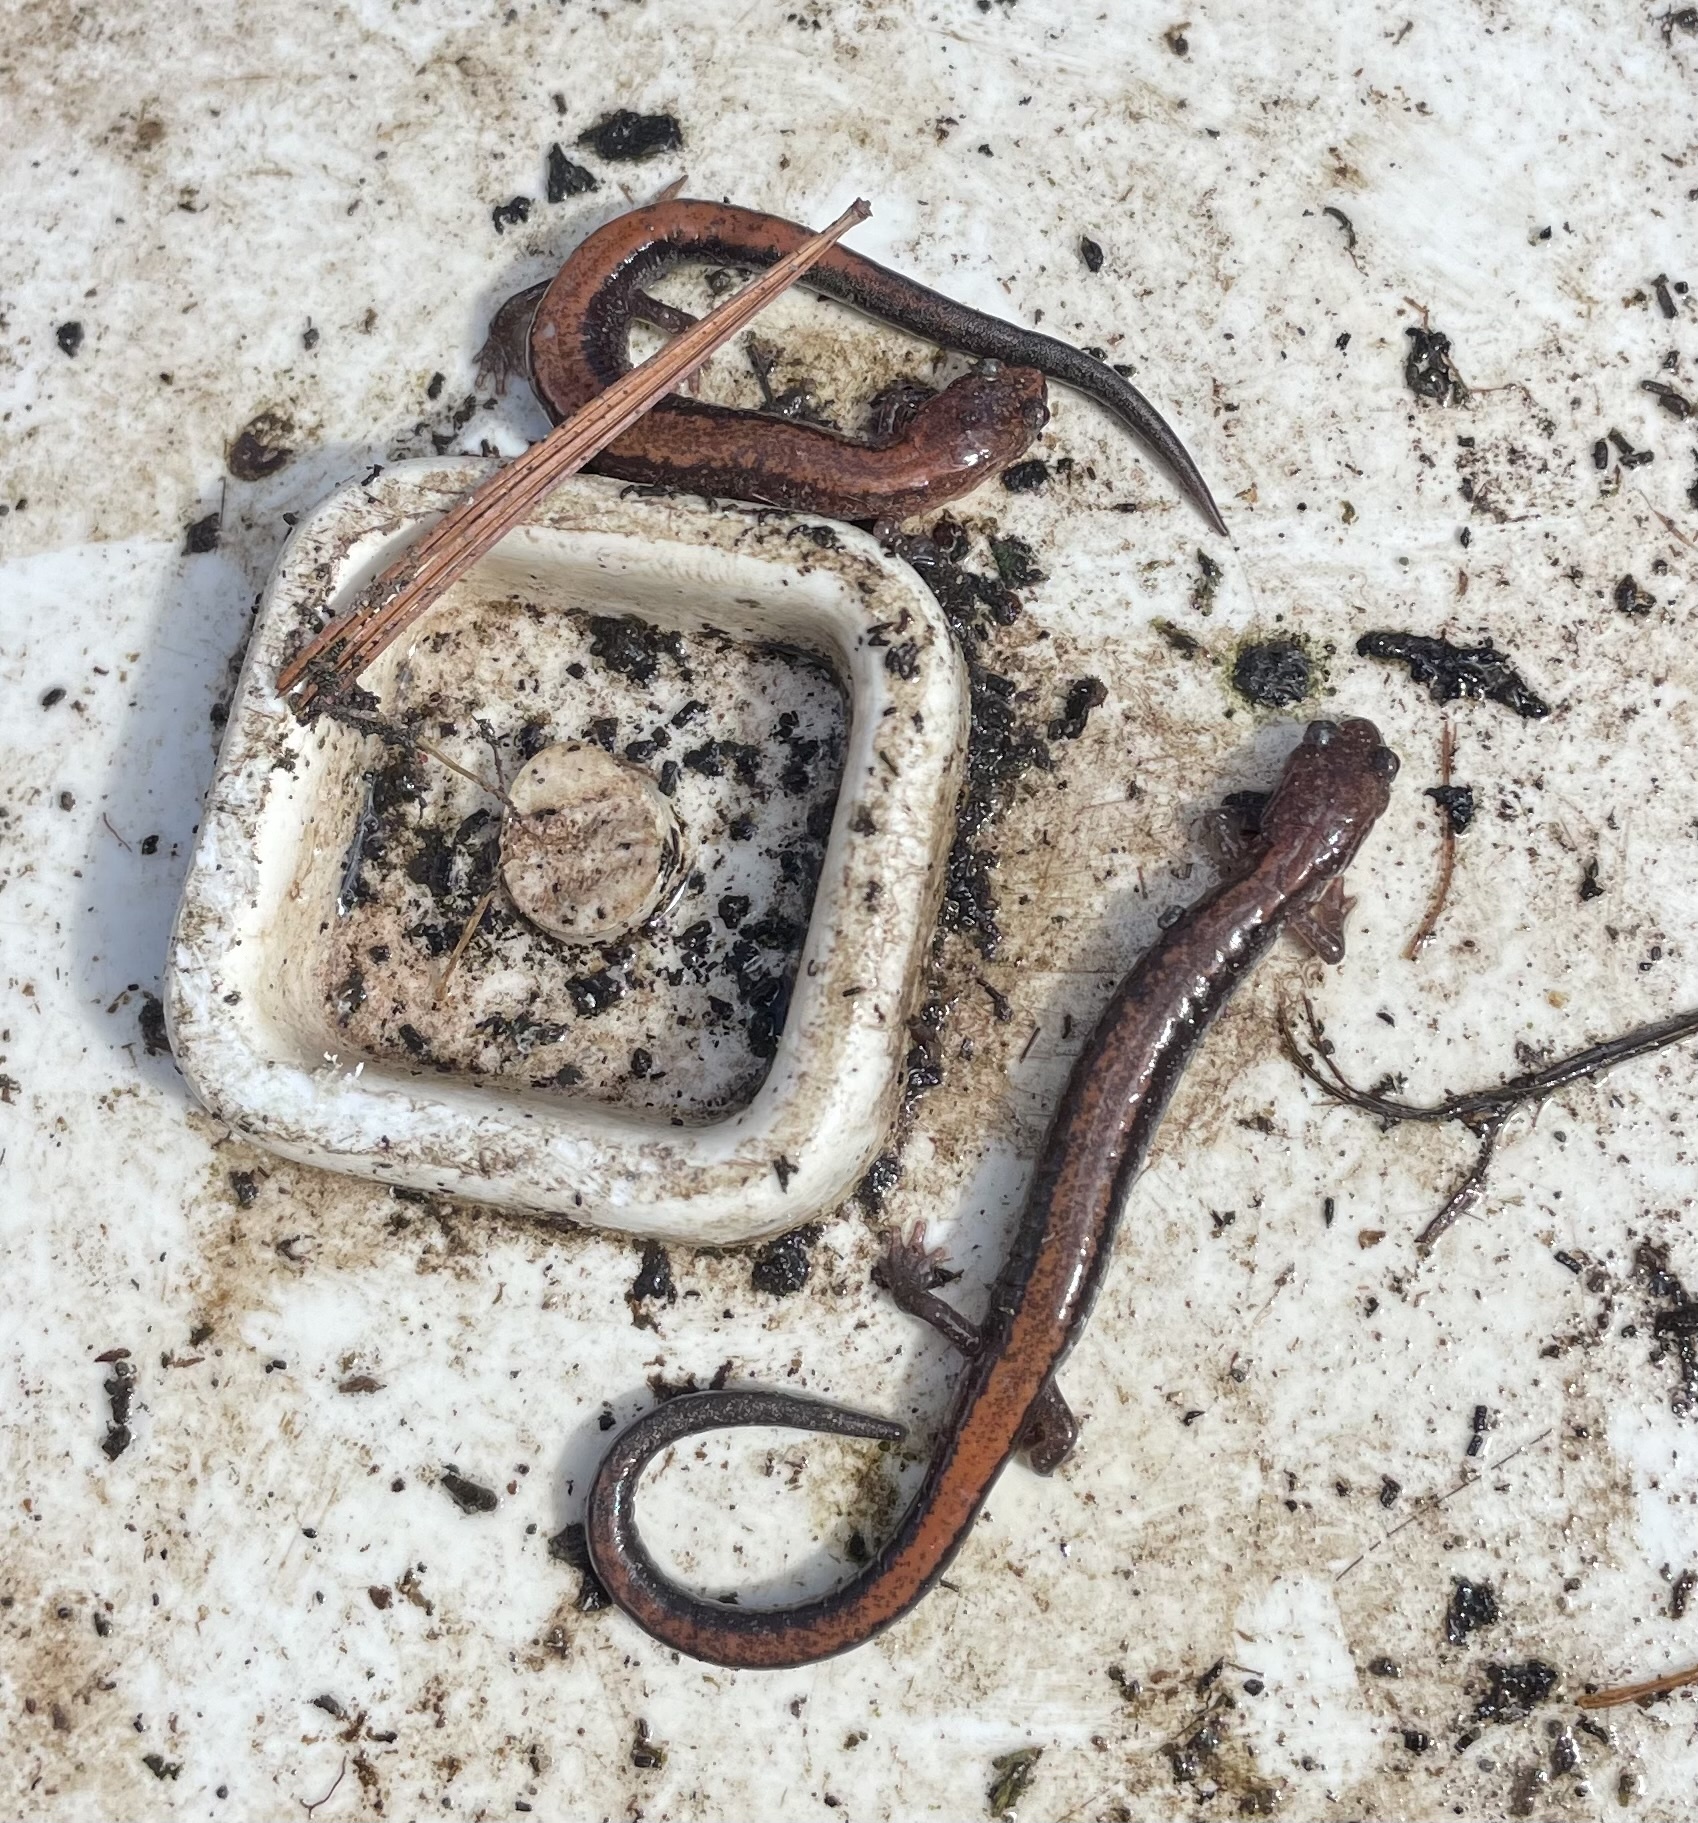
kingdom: Animalia
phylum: Chordata
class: Amphibia
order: Caudata
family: Plethodontidae
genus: Plethodon
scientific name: Plethodon cinereus
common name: Redback salamander
